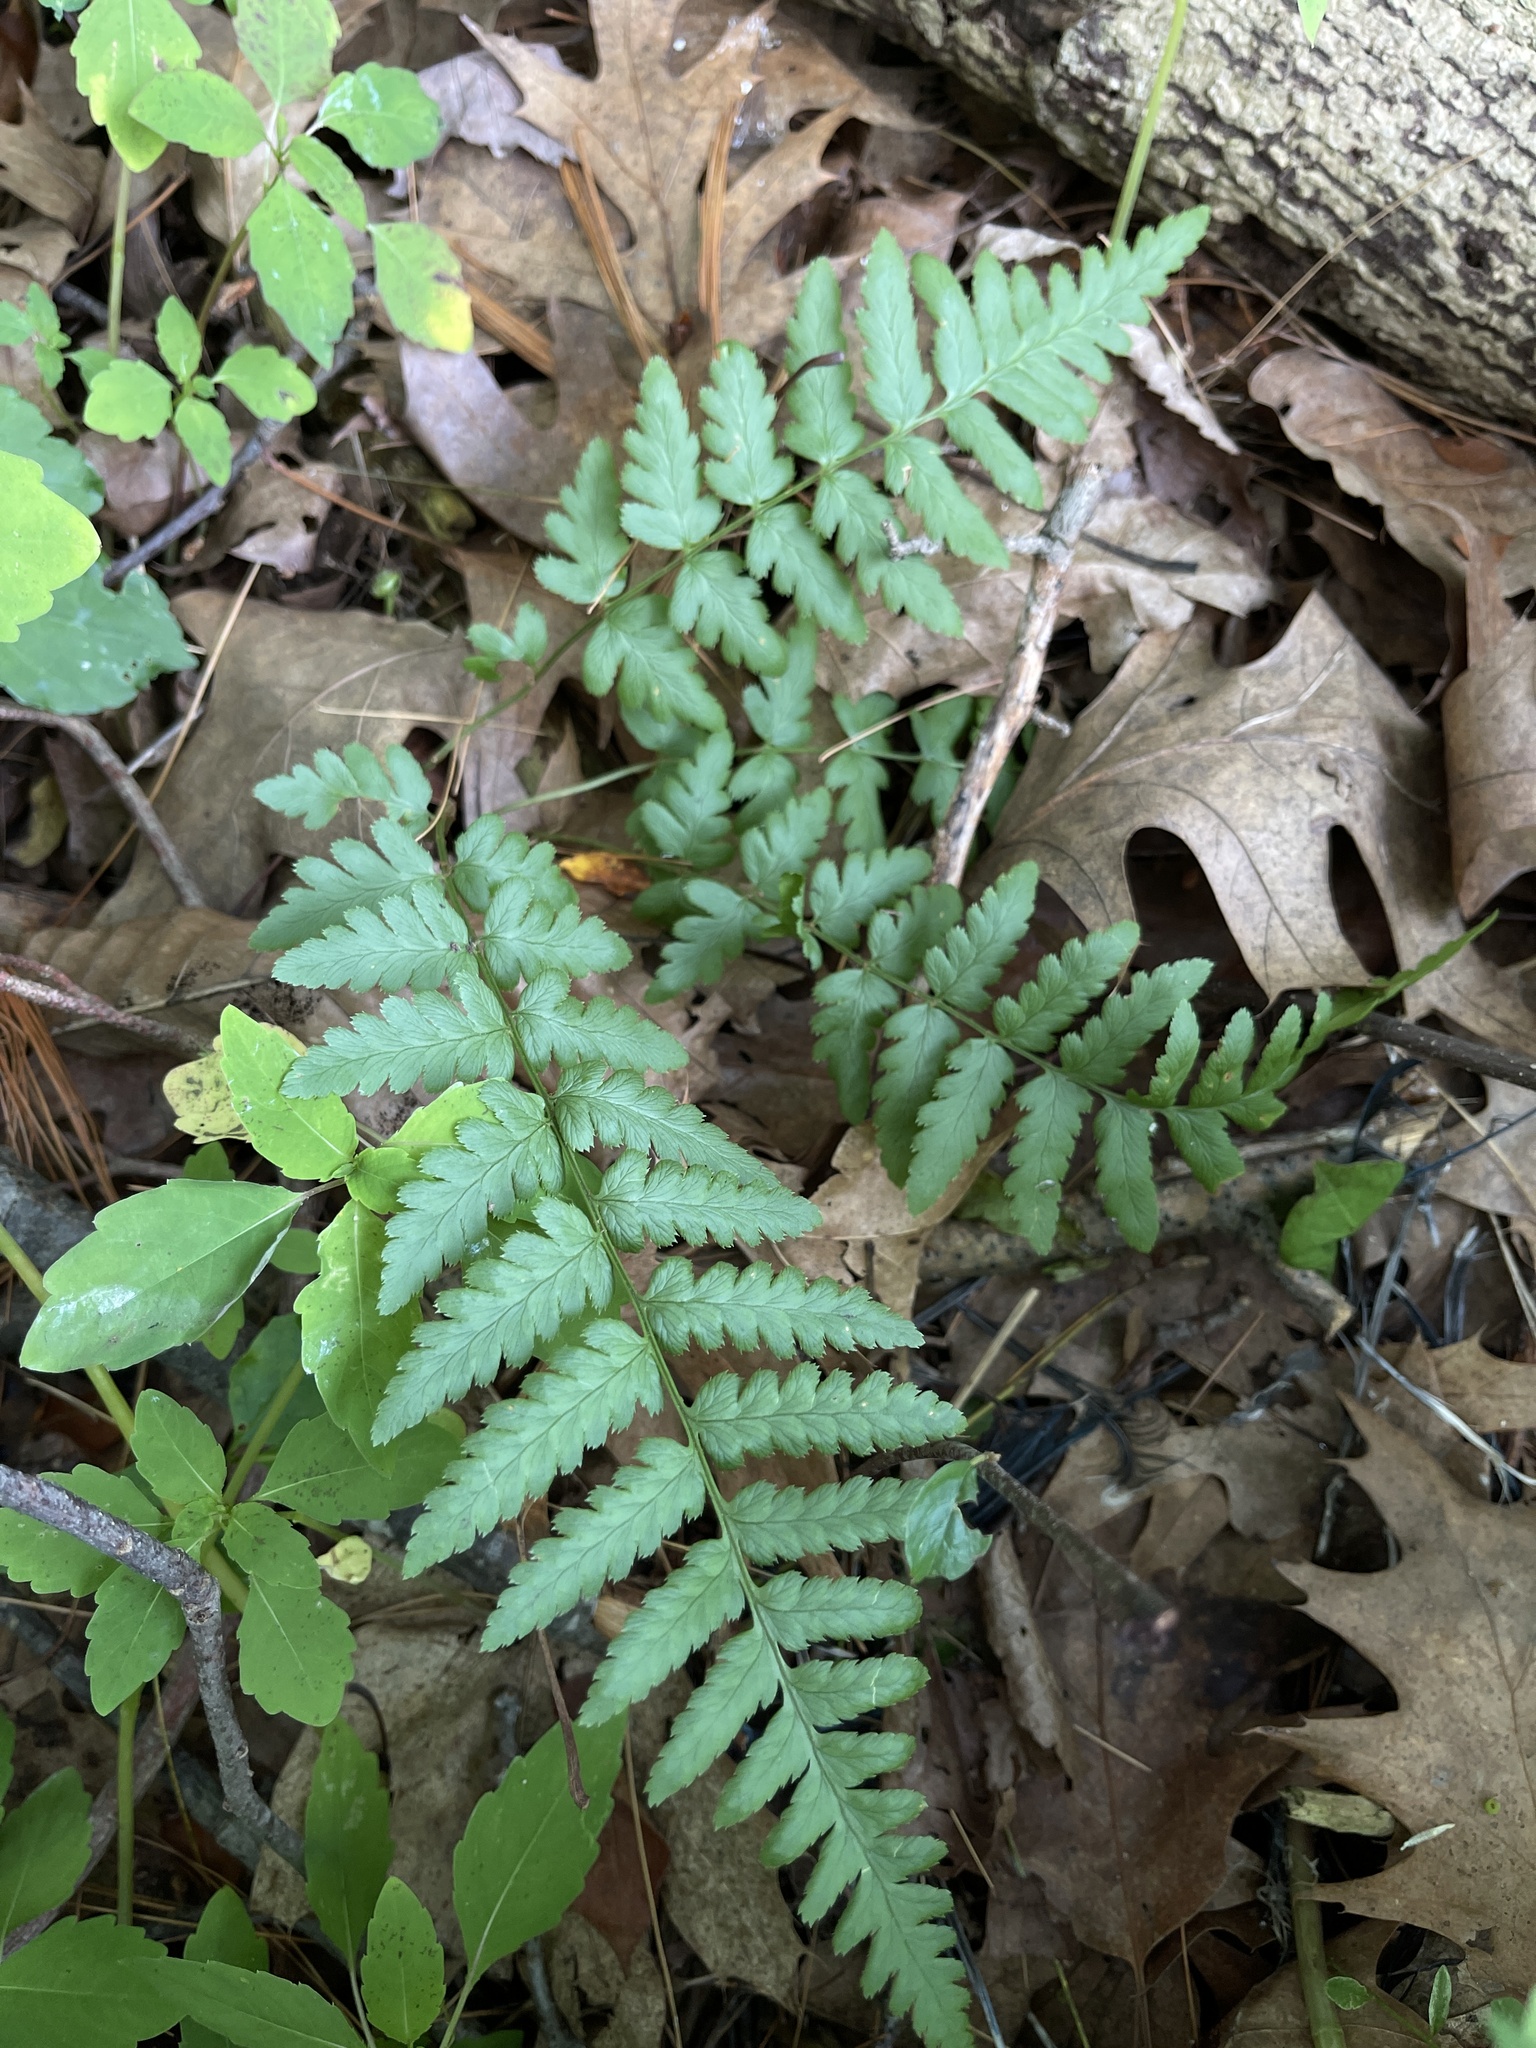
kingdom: Plantae
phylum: Tracheophyta
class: Polypodiopsida
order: Polypodiales
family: Dryopteridaceae
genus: Dryopteris
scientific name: Dryopteris cristata
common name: Crested wood fern
